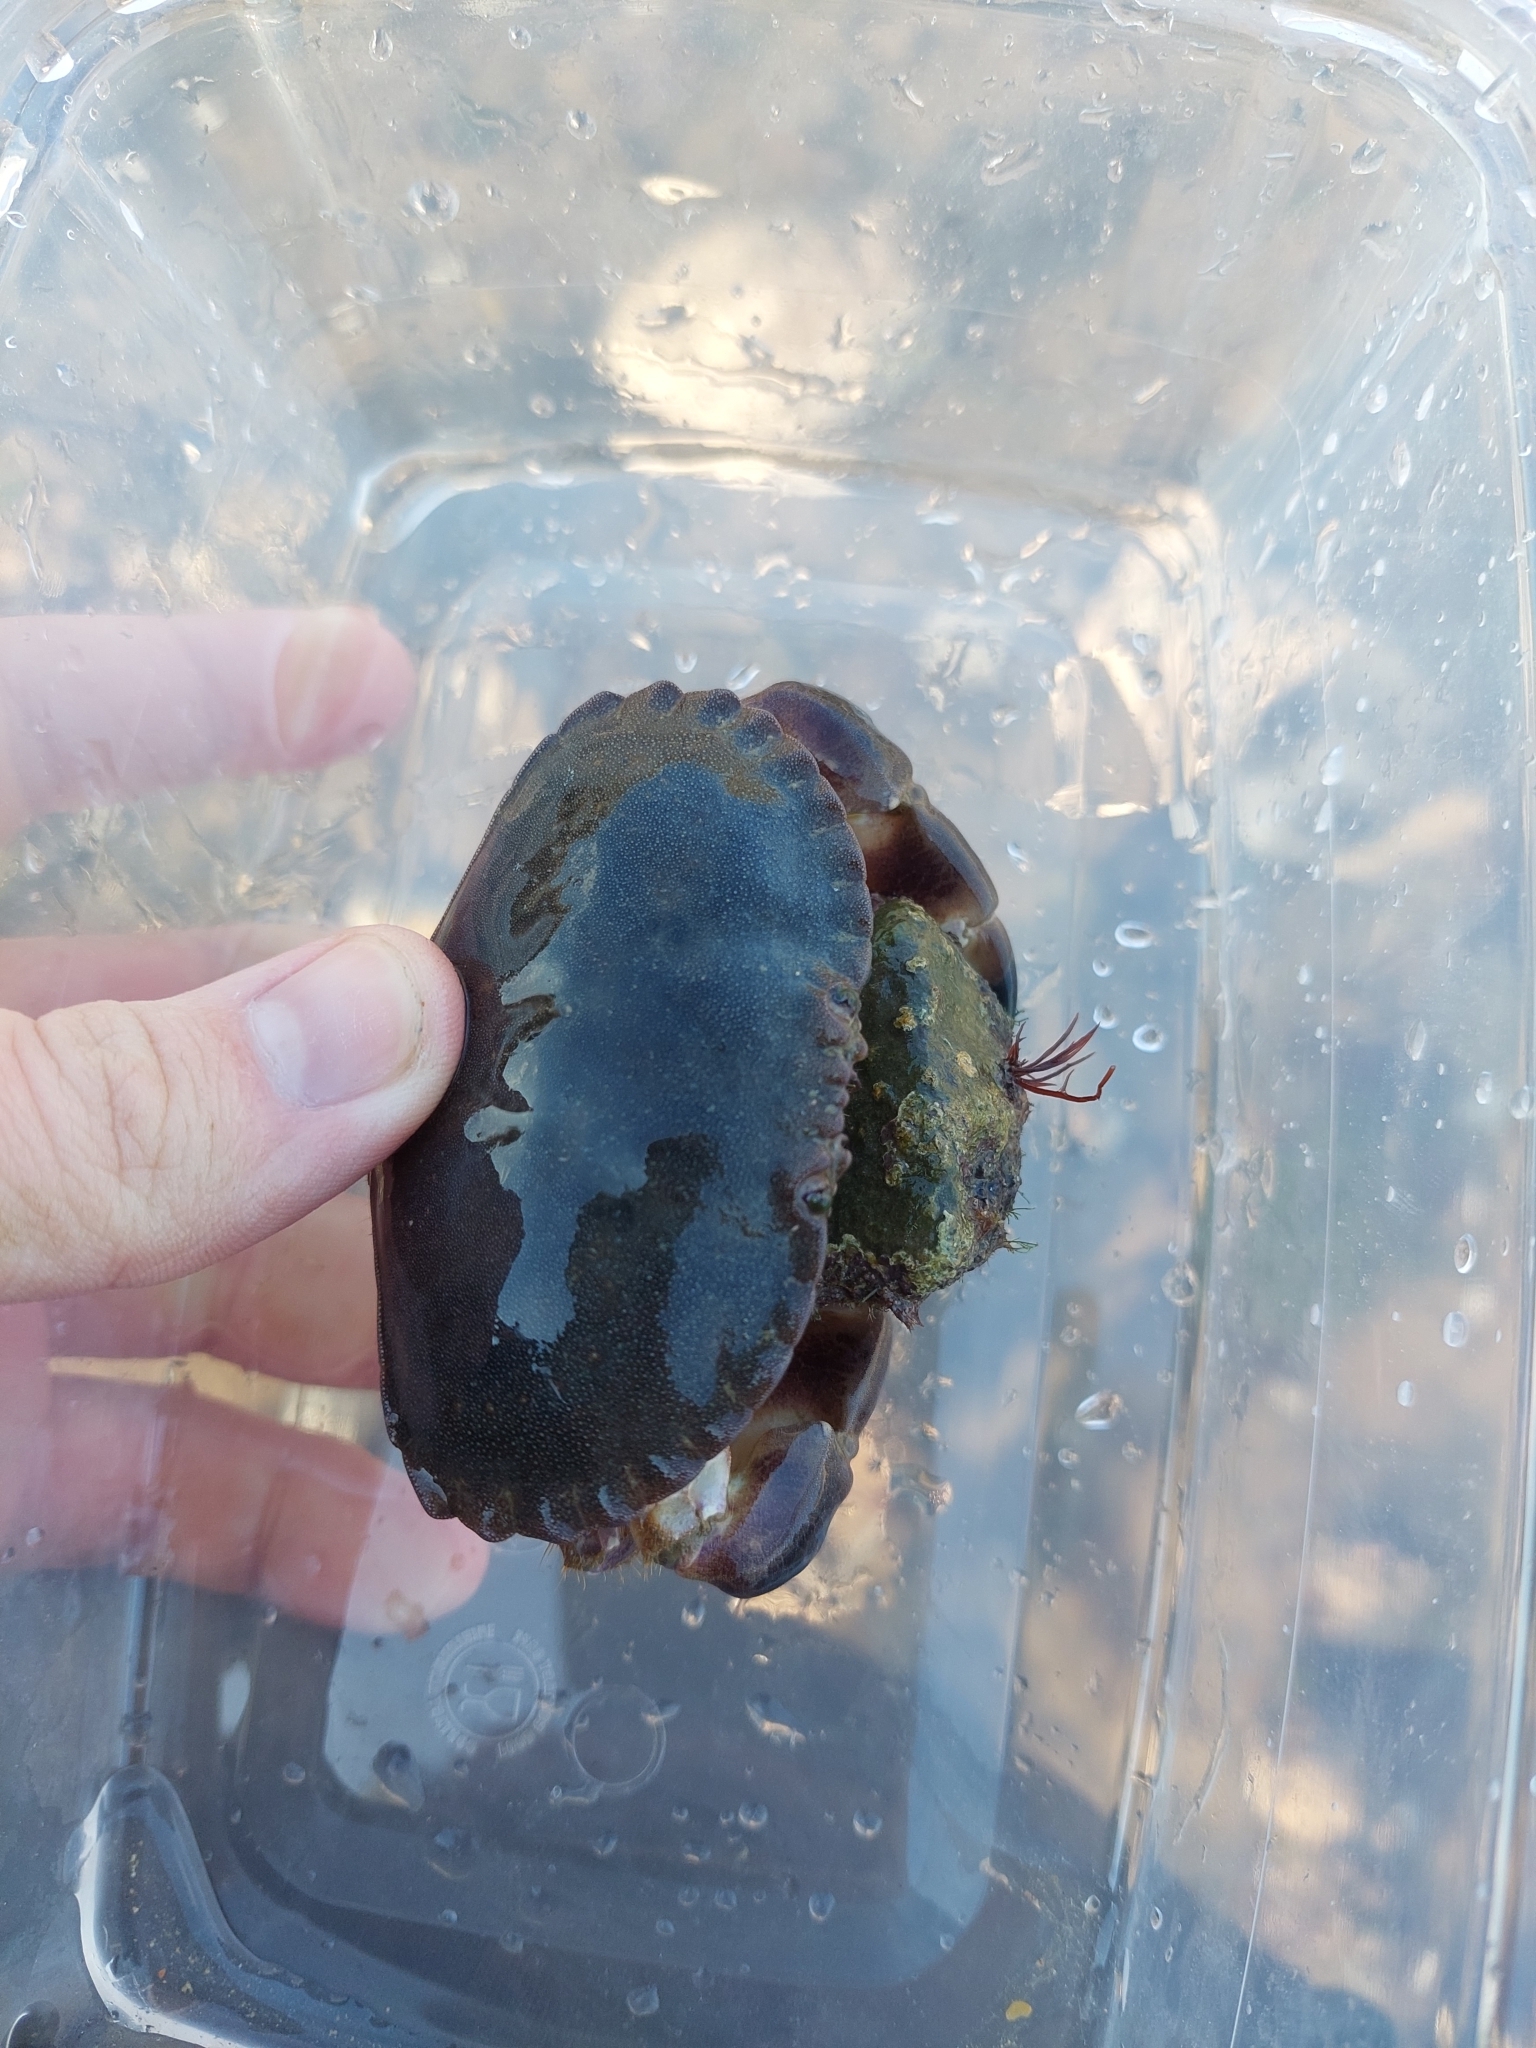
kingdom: Animalia
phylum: Arthropoda
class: Malacostraca
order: Decapoda
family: Cancridae
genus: Cancer
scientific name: Cancer pagurus
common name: Edible crab
